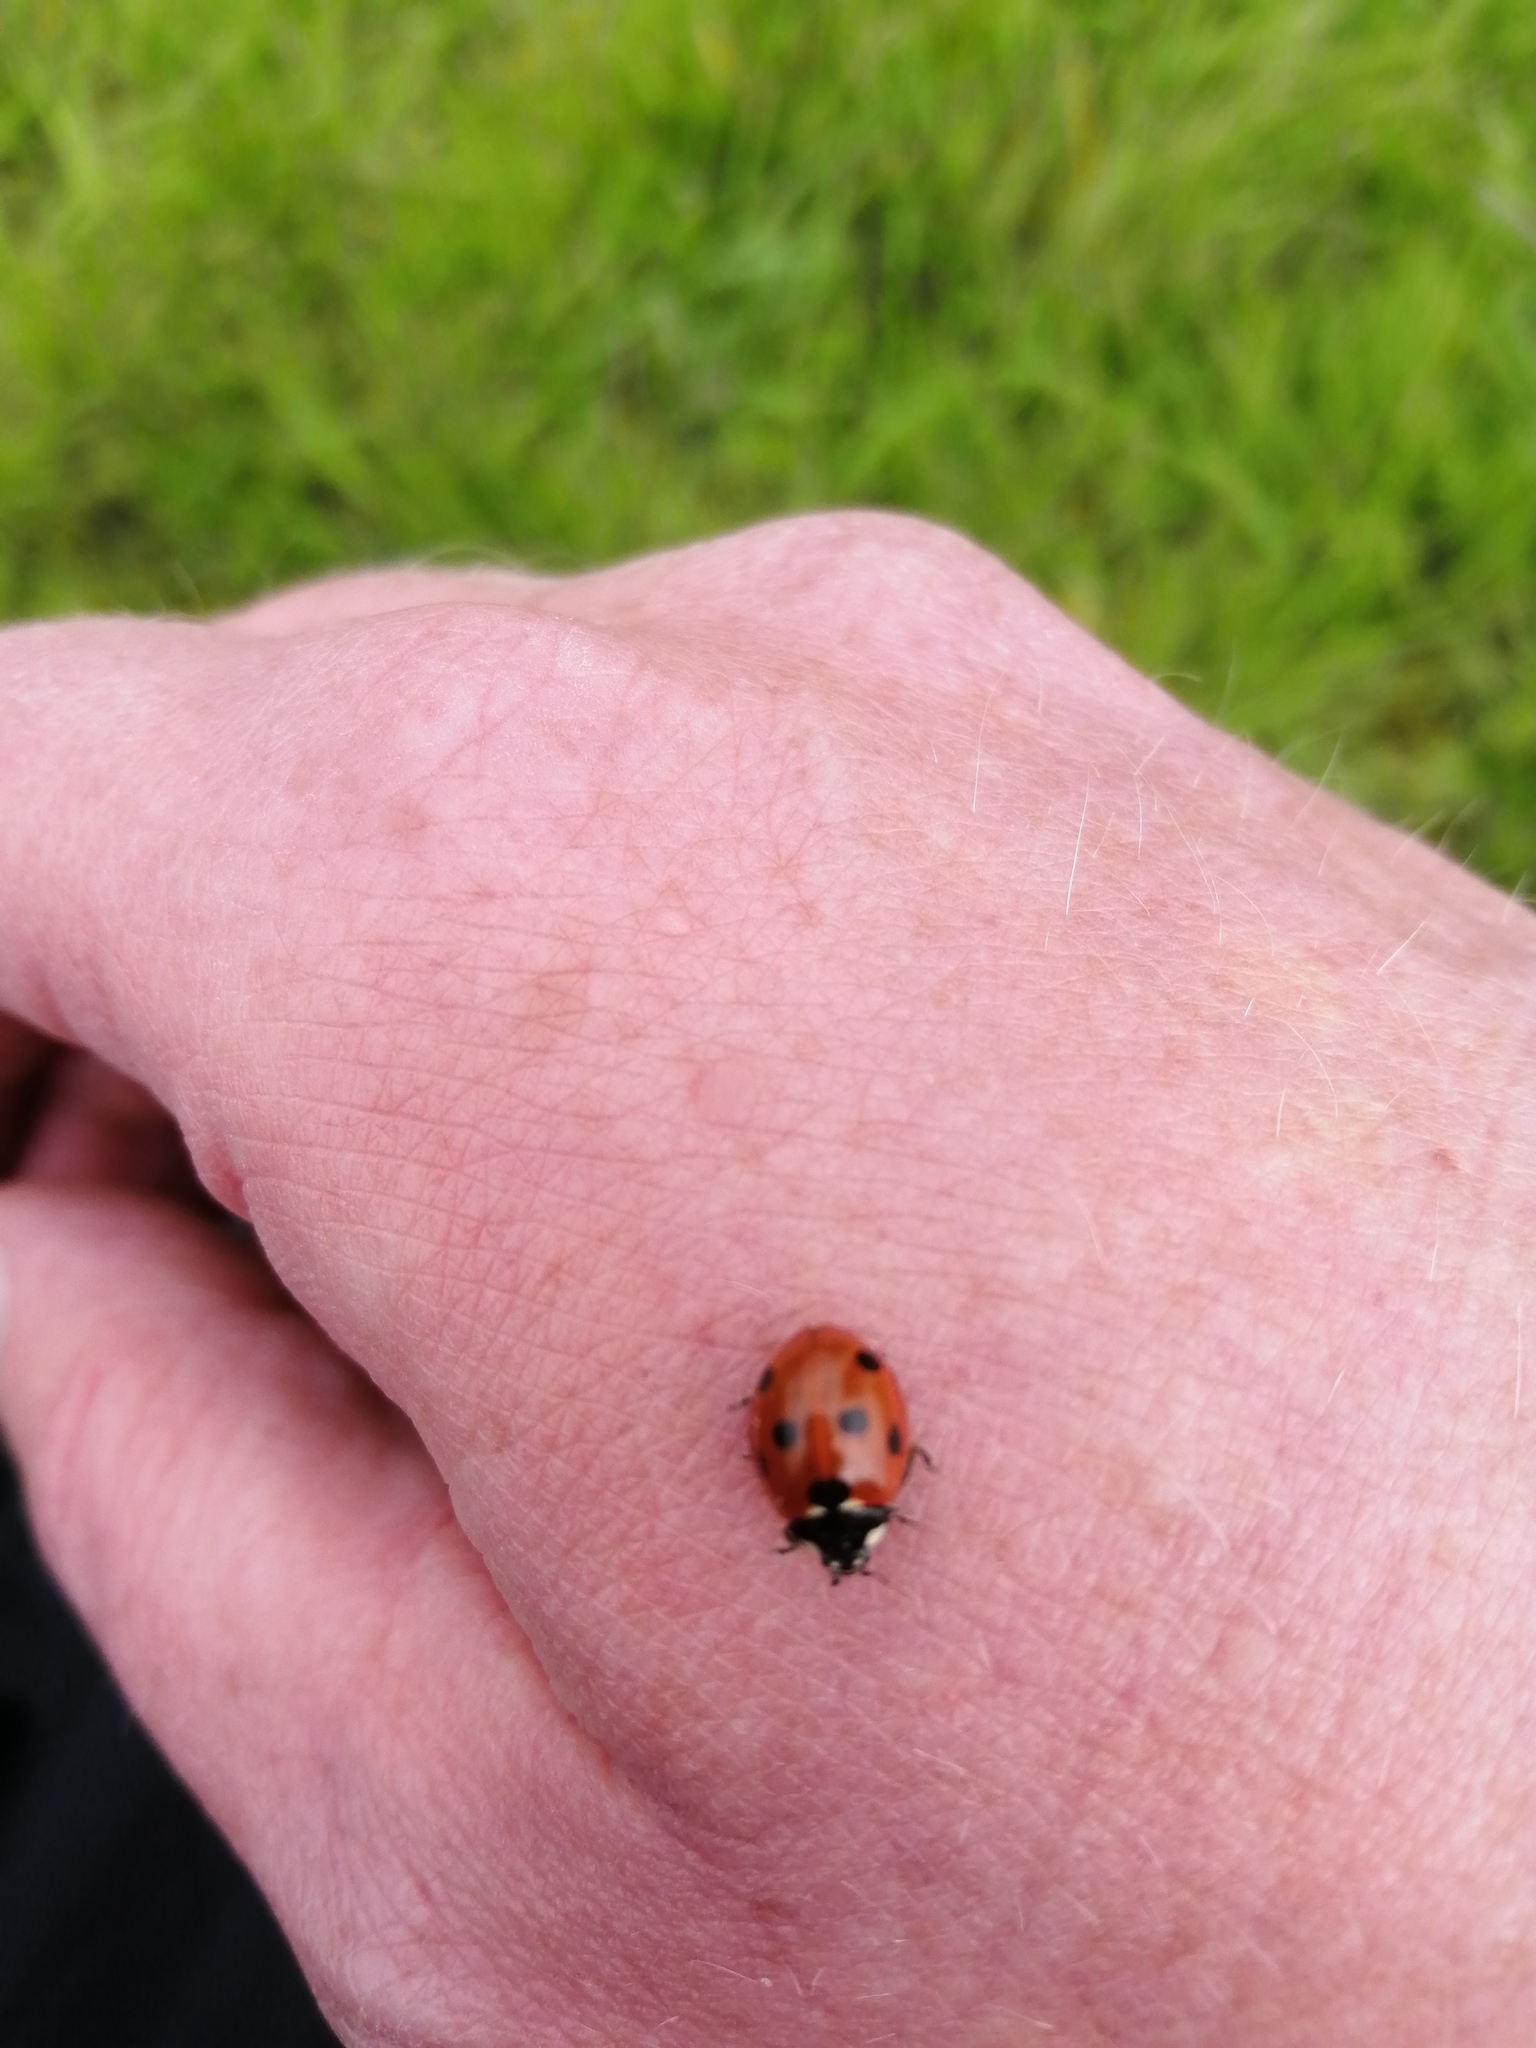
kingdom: Animalia
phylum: Arthropoda
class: Insecta
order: Coleoptera
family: Coccinellidae
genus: Coccinella
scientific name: Coccinella septempunctata
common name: Sevenspotted lady beetle
